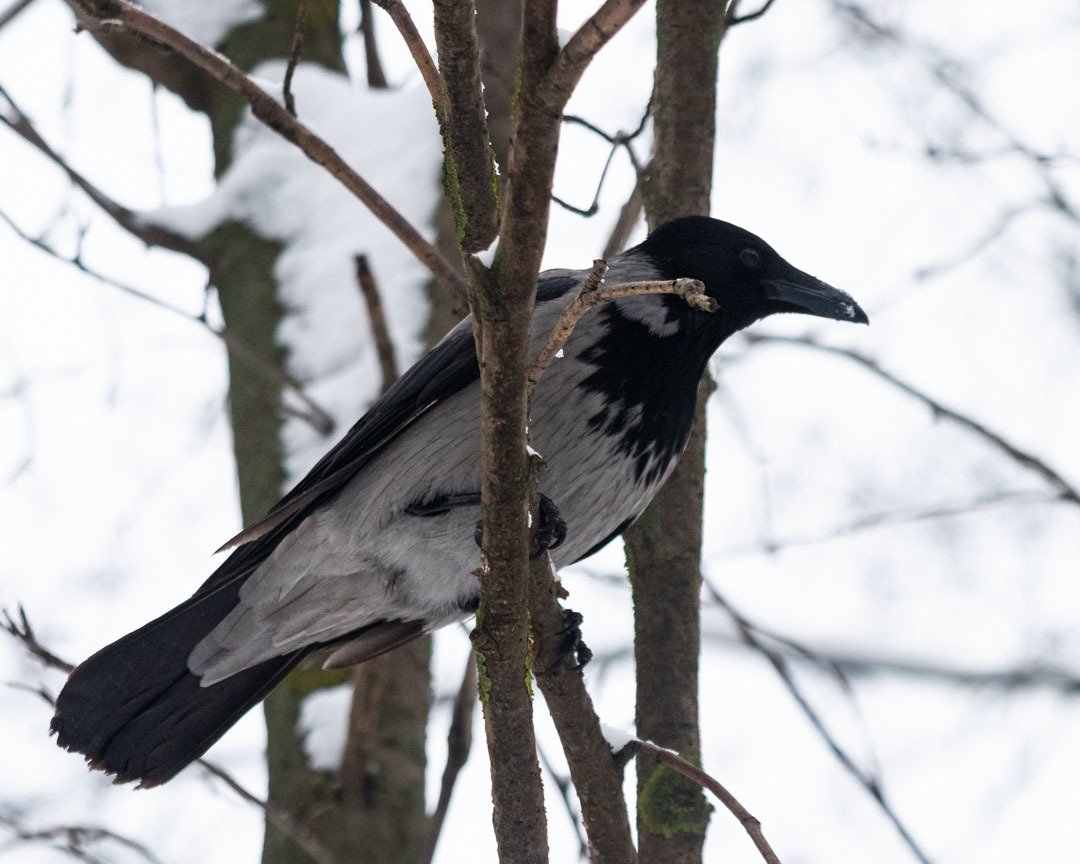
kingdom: Animalia
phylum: Chordata
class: Aves
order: Passeriformes
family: Corvidae
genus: Corvus
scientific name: Corvus cornix
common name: Hooded crow
